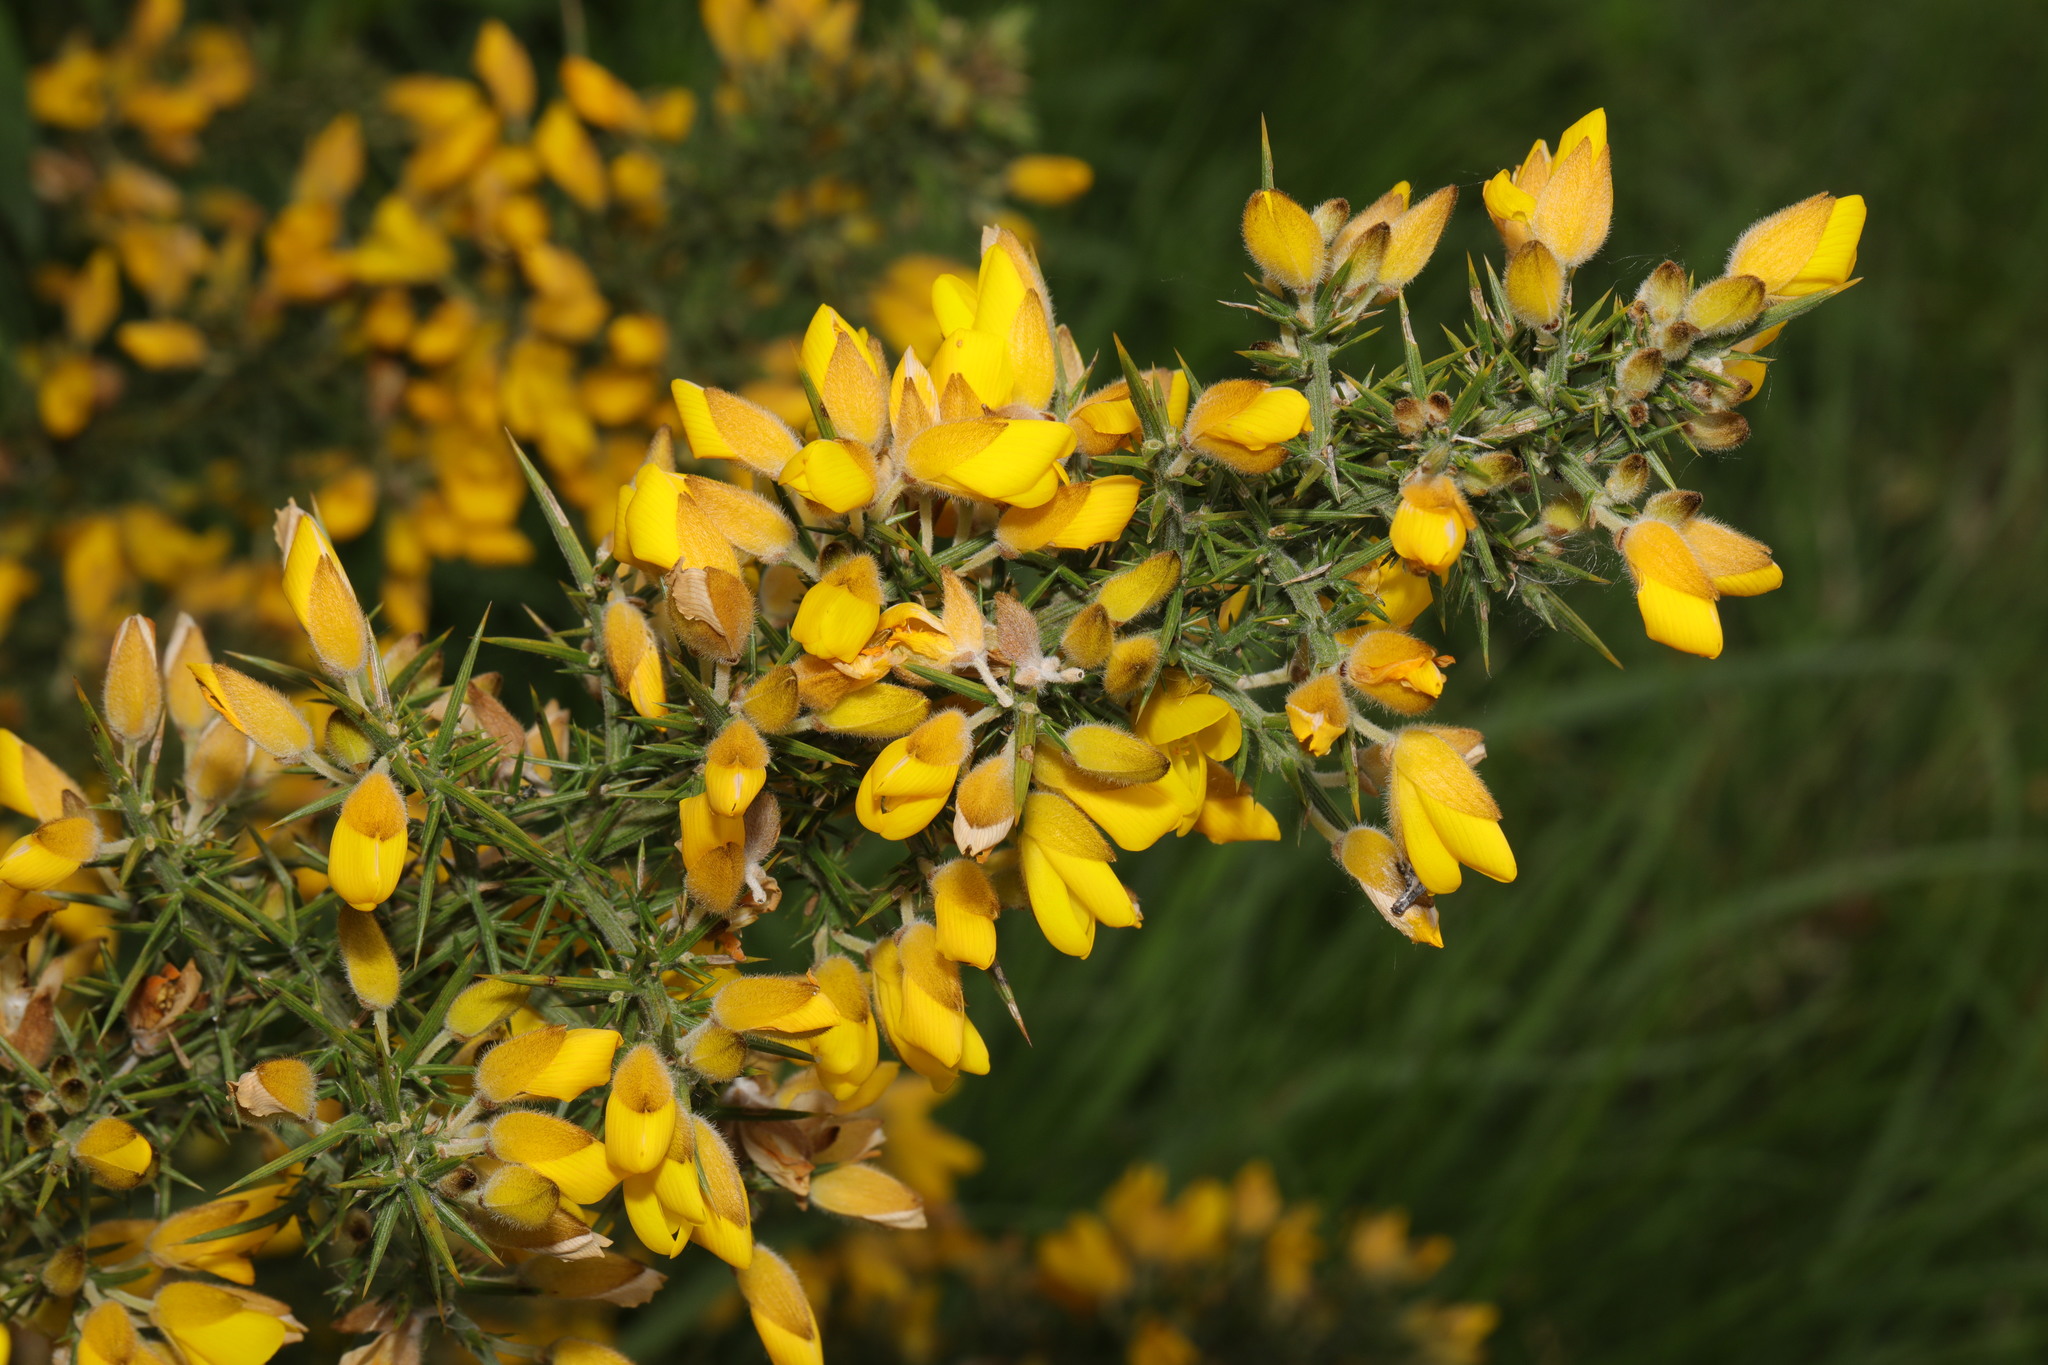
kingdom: Plantae
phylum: Tracheophyta
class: Magnoliopsida
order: Fabales
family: Fabaceae
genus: Ulex
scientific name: Ulex europaeus
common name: Common gorse
